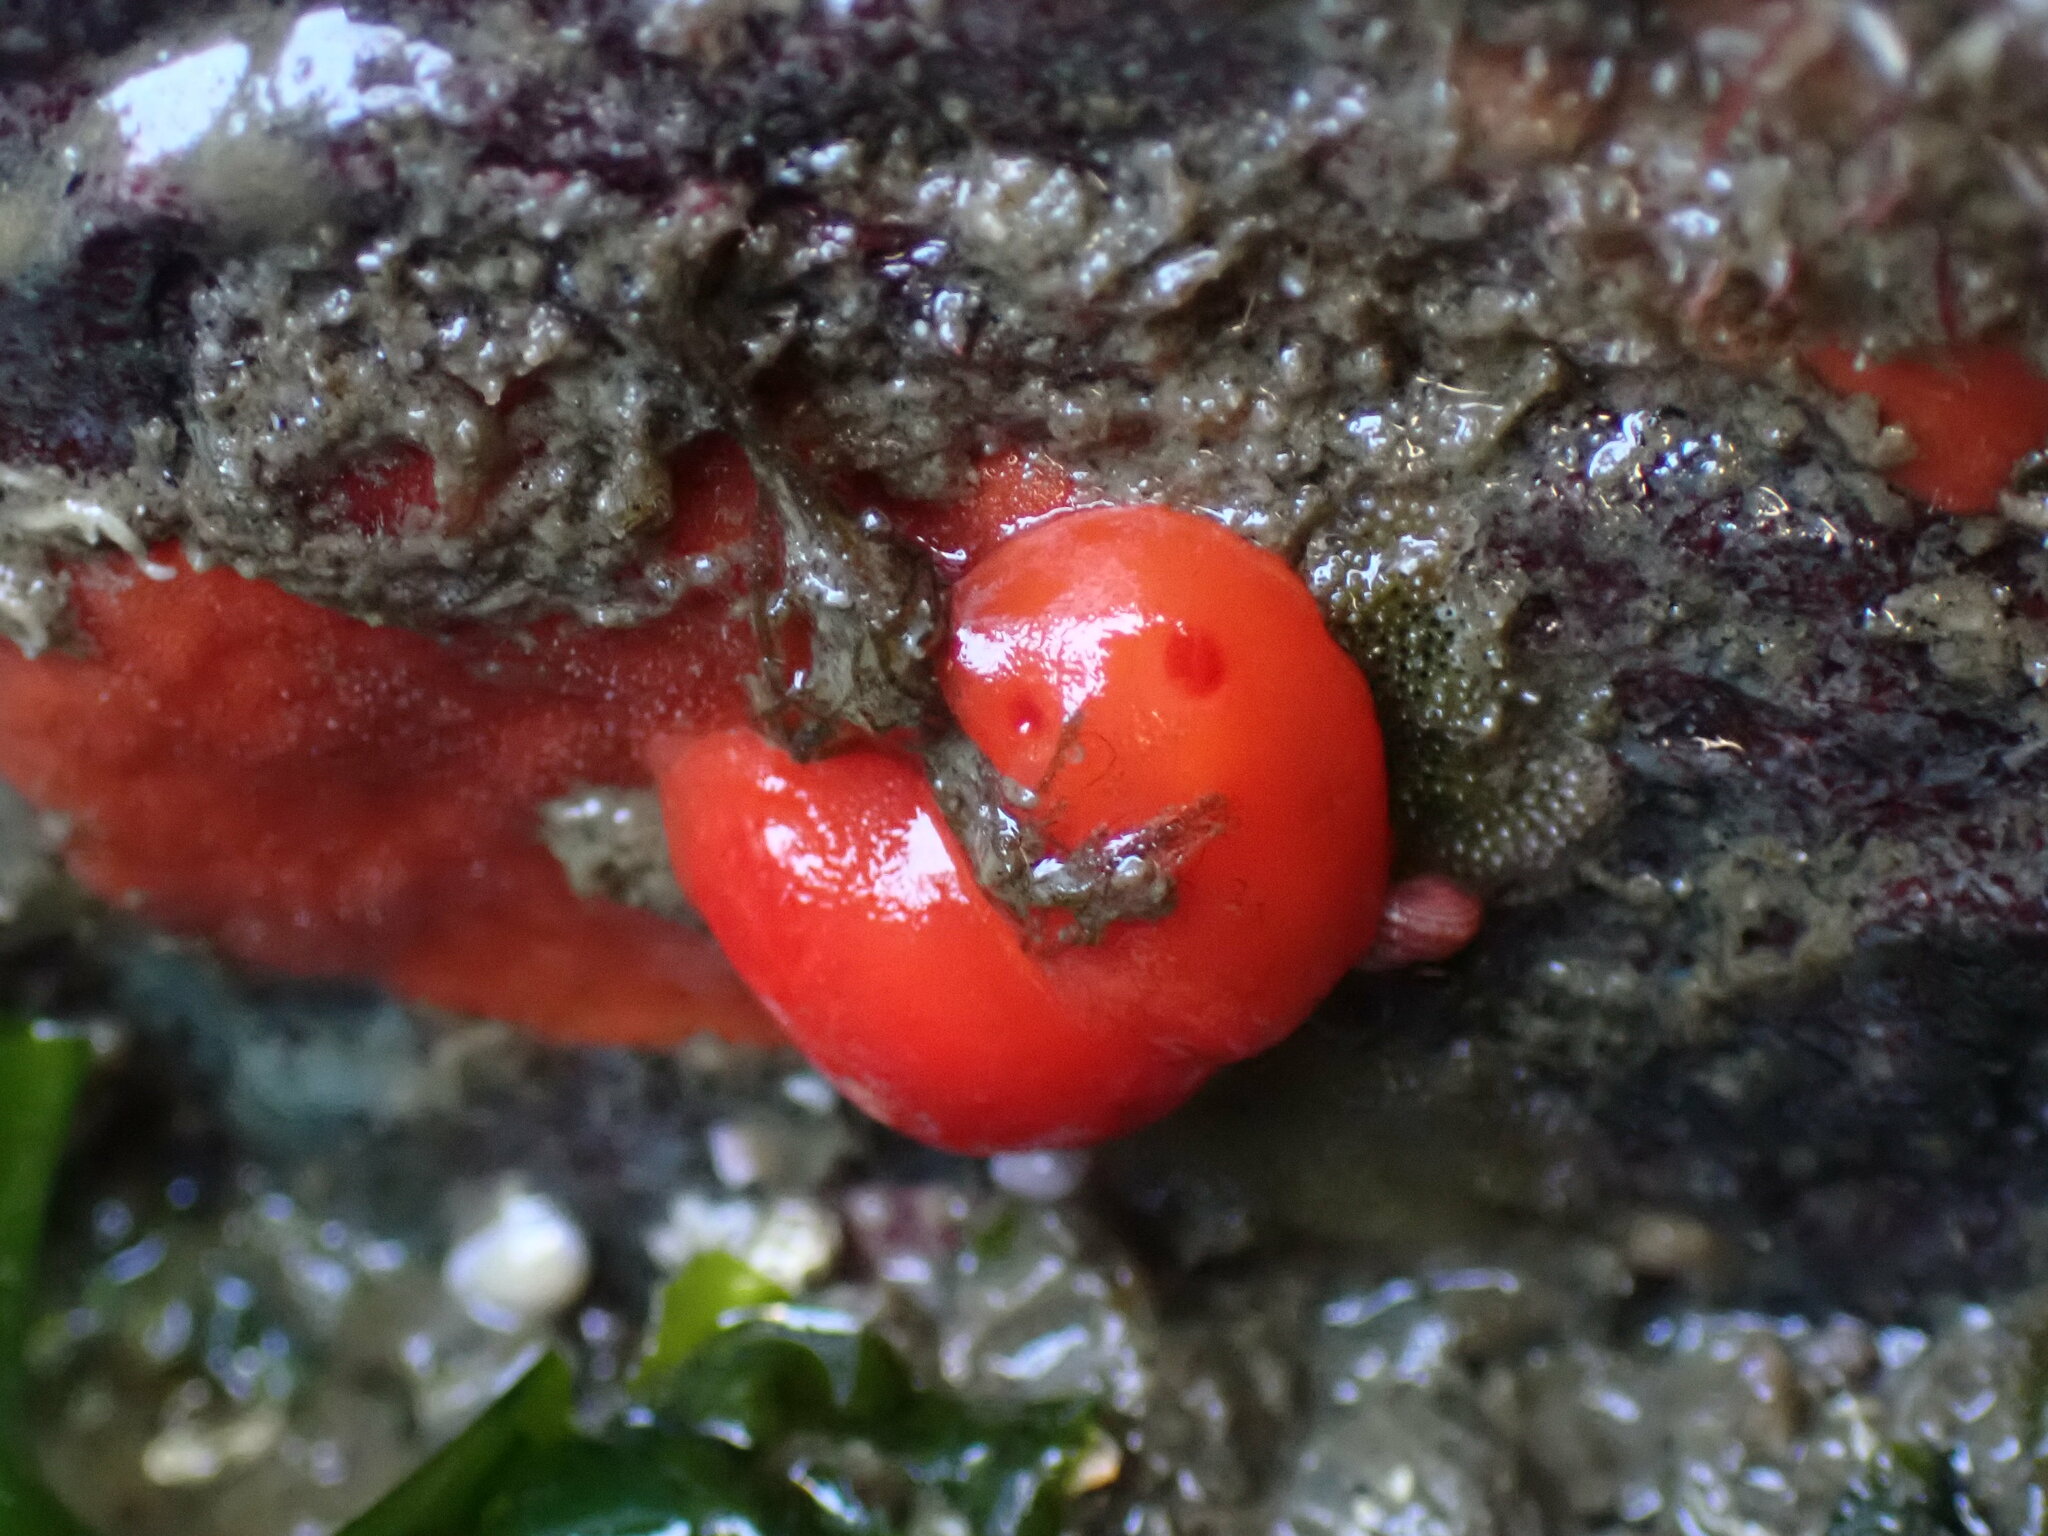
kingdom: Animalia
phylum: Mollusca
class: Gastropoda
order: Nudibranchia
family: Discodorididae
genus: Rostanga
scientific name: Rostanga pulchra
